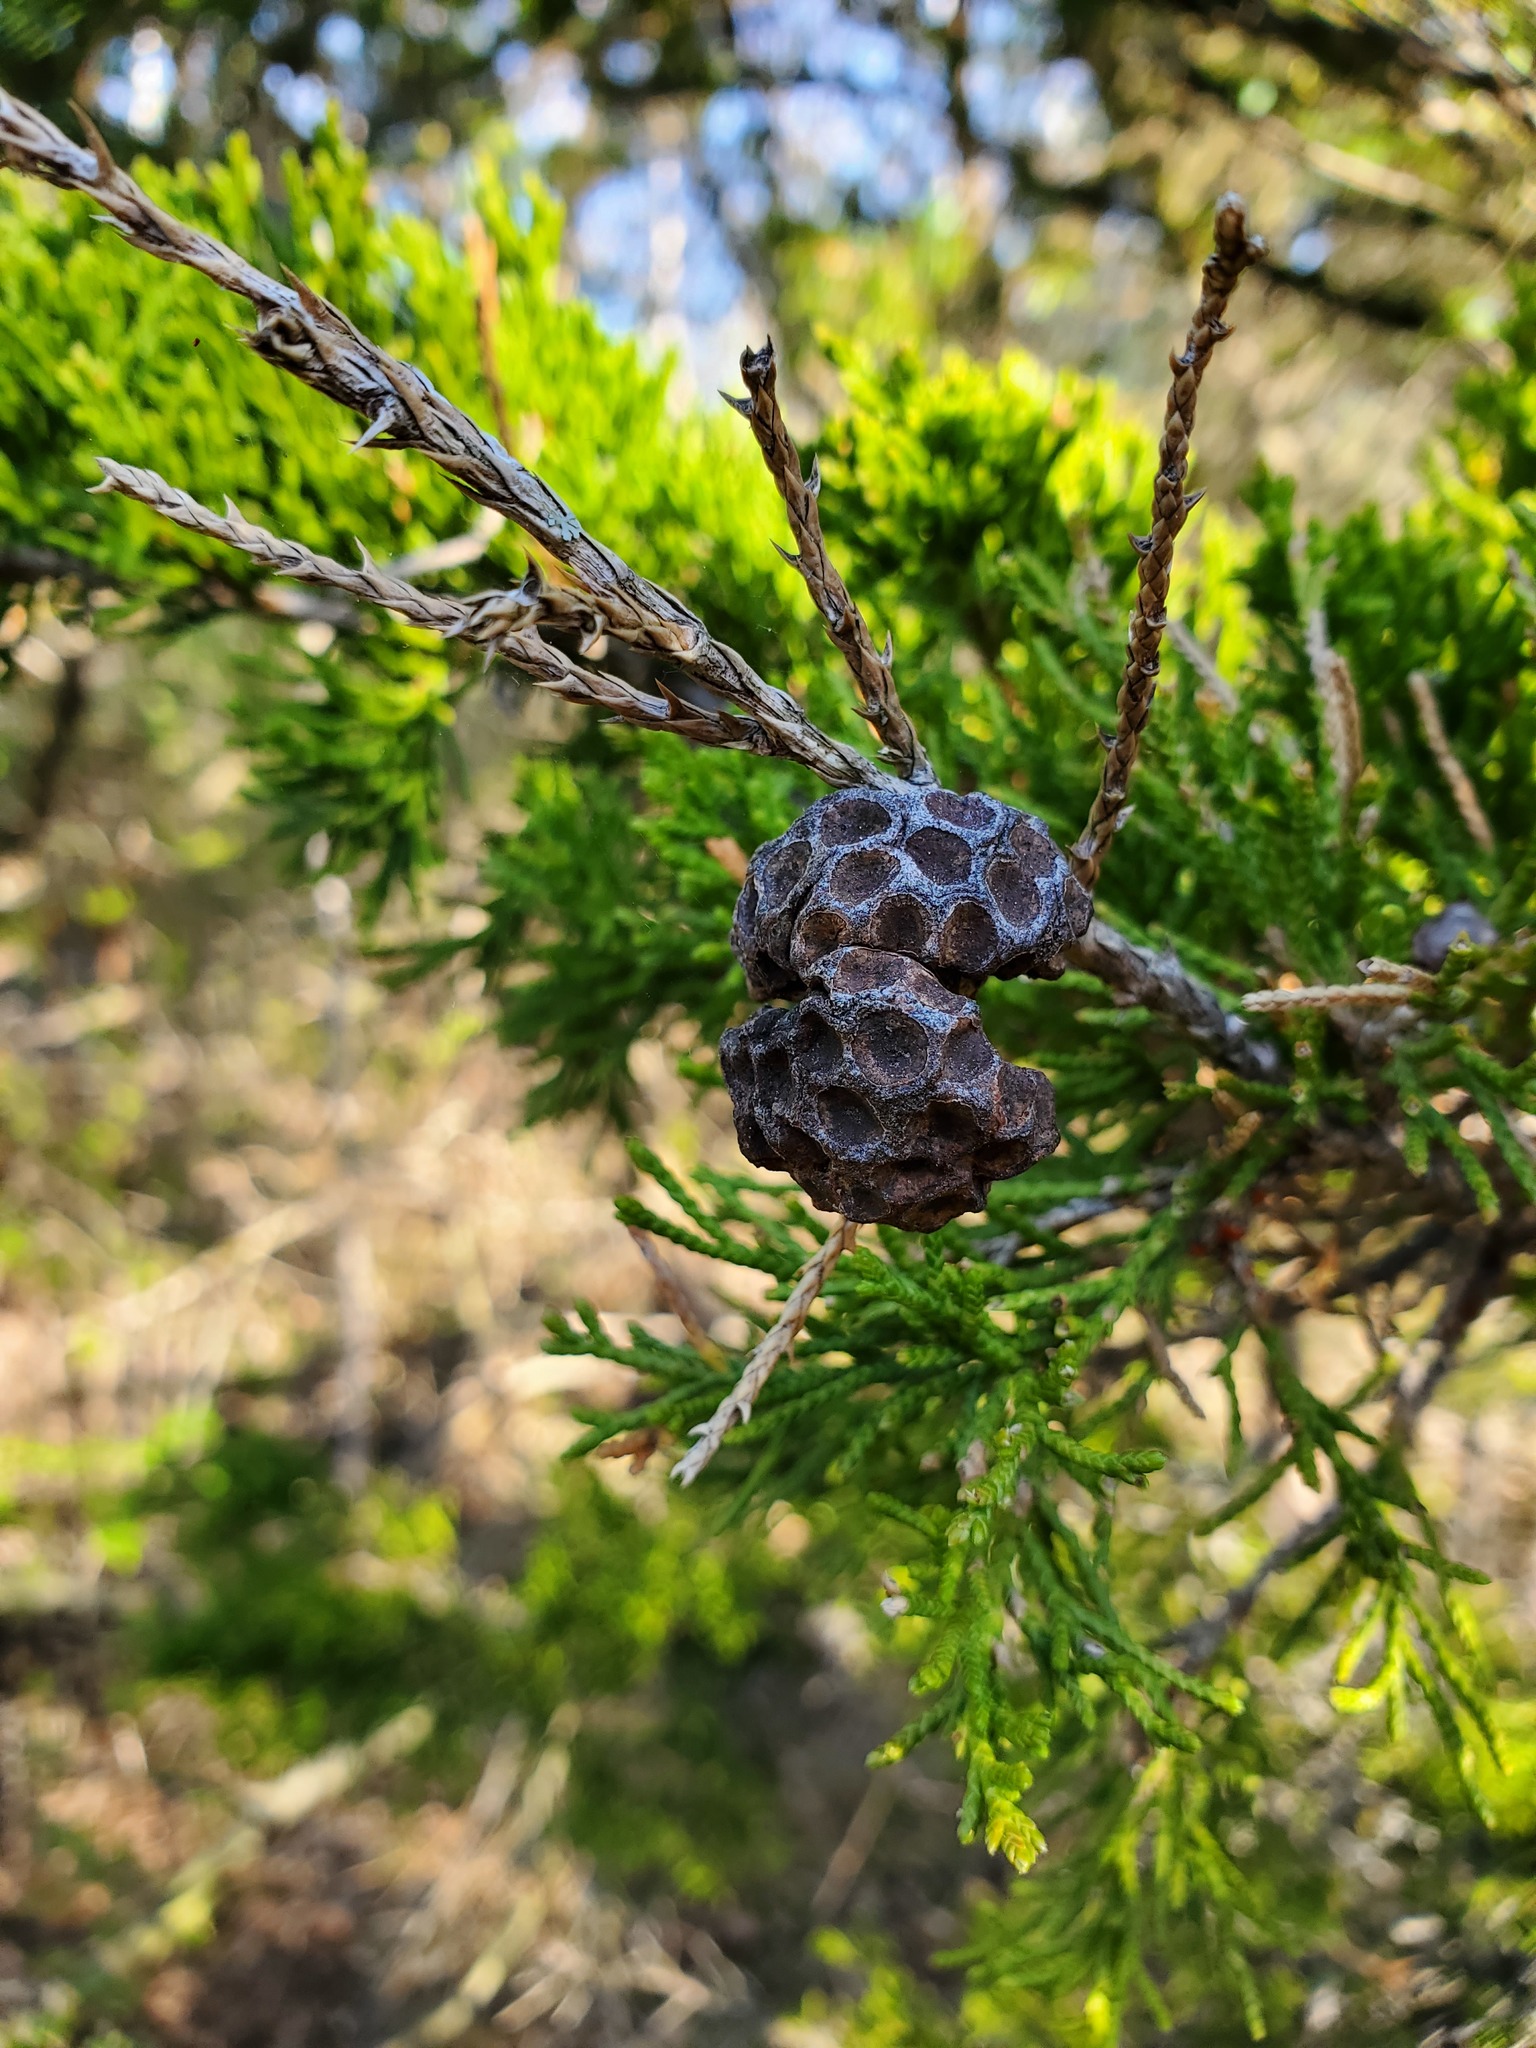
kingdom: Fungi
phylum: Basidiomycota
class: Pucciniomycetes
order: Pucciniales
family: Gymnosporangiaceae
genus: Gymnosporangium
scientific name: Gymnosporangium juniperi-virginianae
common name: Juniper-apple rust
